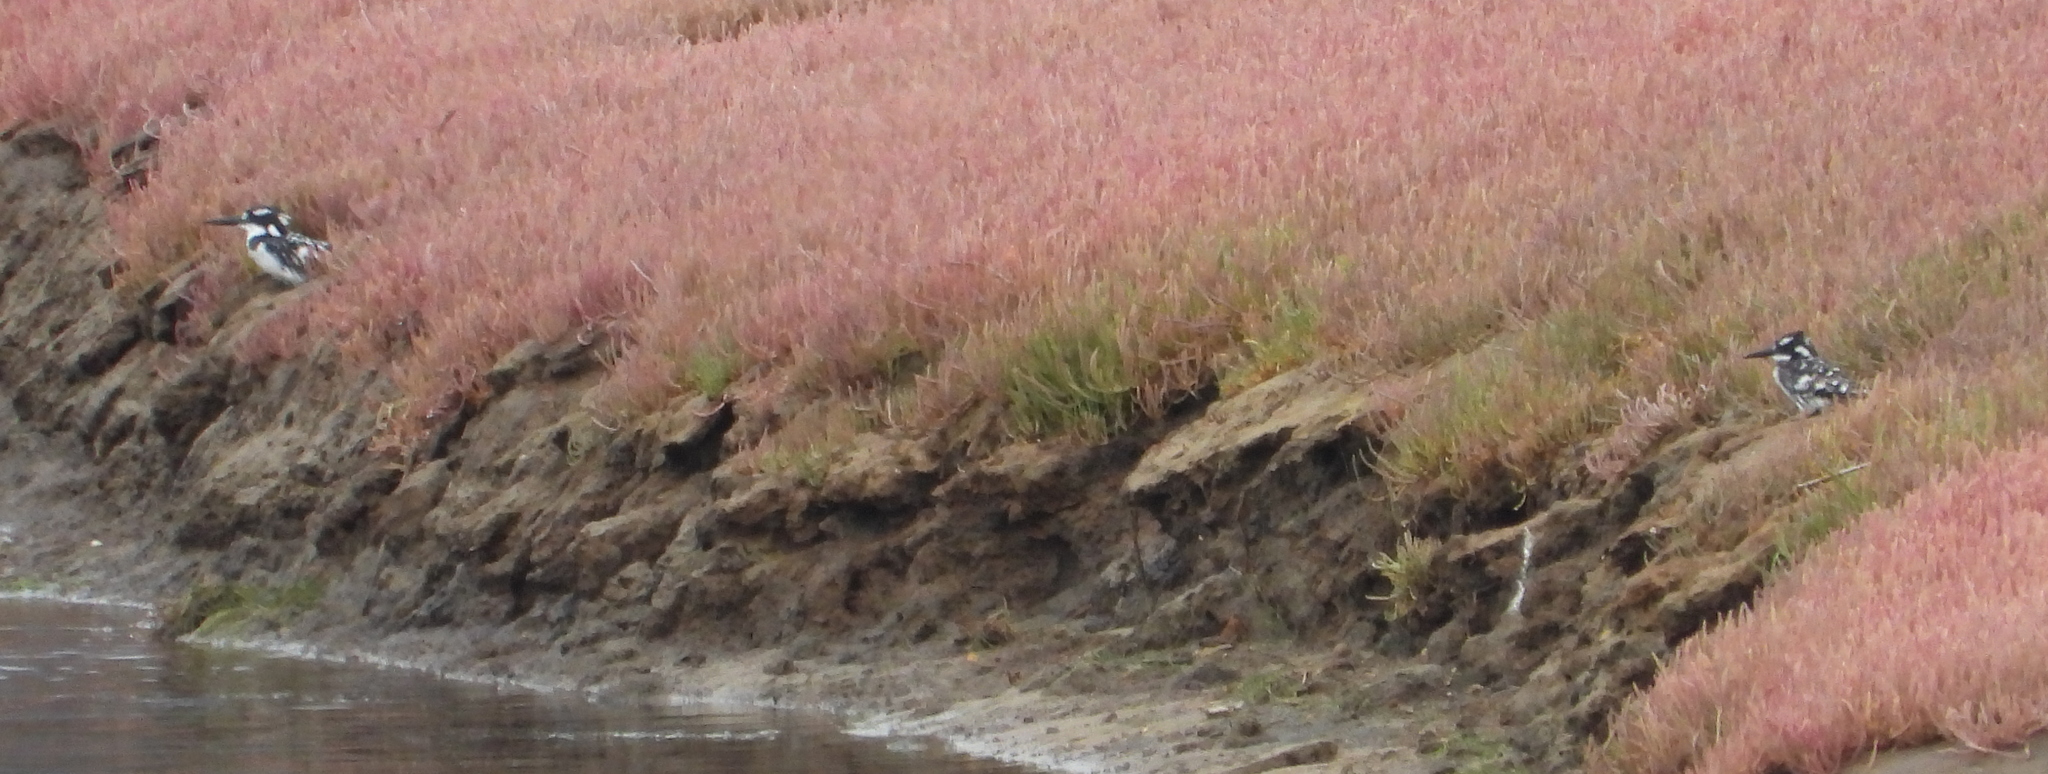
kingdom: Animalia
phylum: Chordata
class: Aves
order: Coraciiformes
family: Alcedinidae
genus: Ceryle
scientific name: Ceryle rudis
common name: Pied kingfisher
